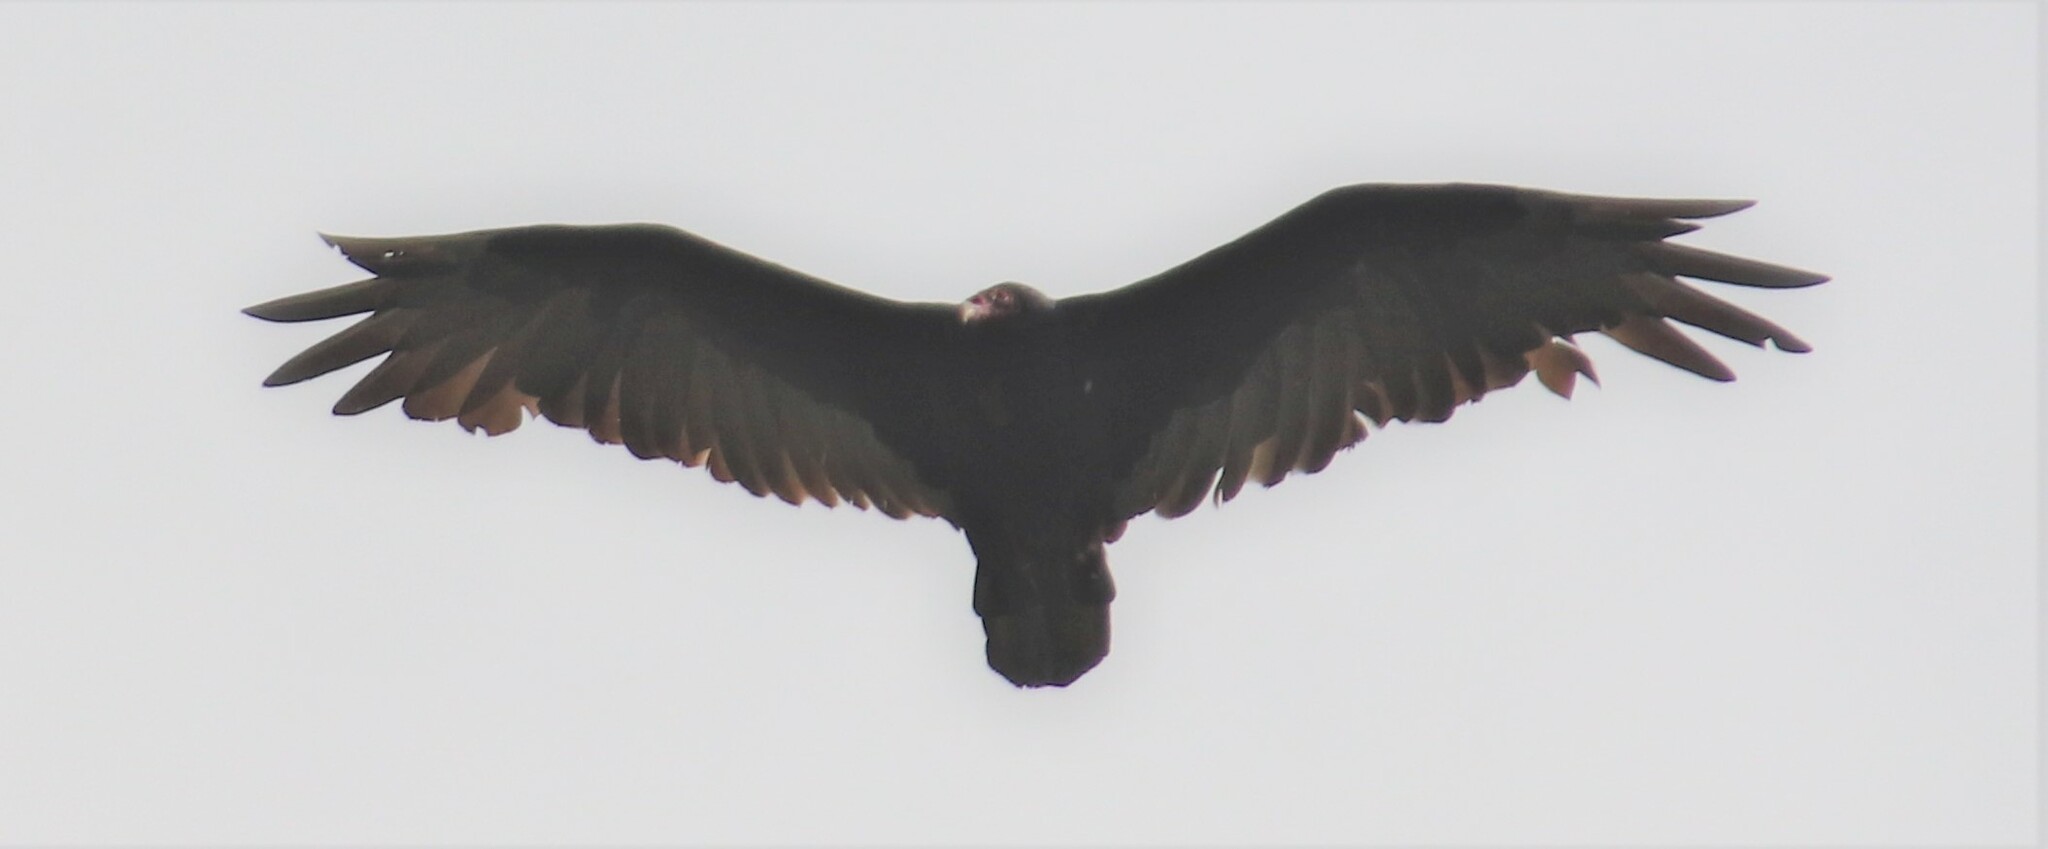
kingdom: Animalia
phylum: Chordata
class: Aves
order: Accipitriformes
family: Cathartidae
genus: Cathartes
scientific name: Cathartes aura
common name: Turkey vulture
